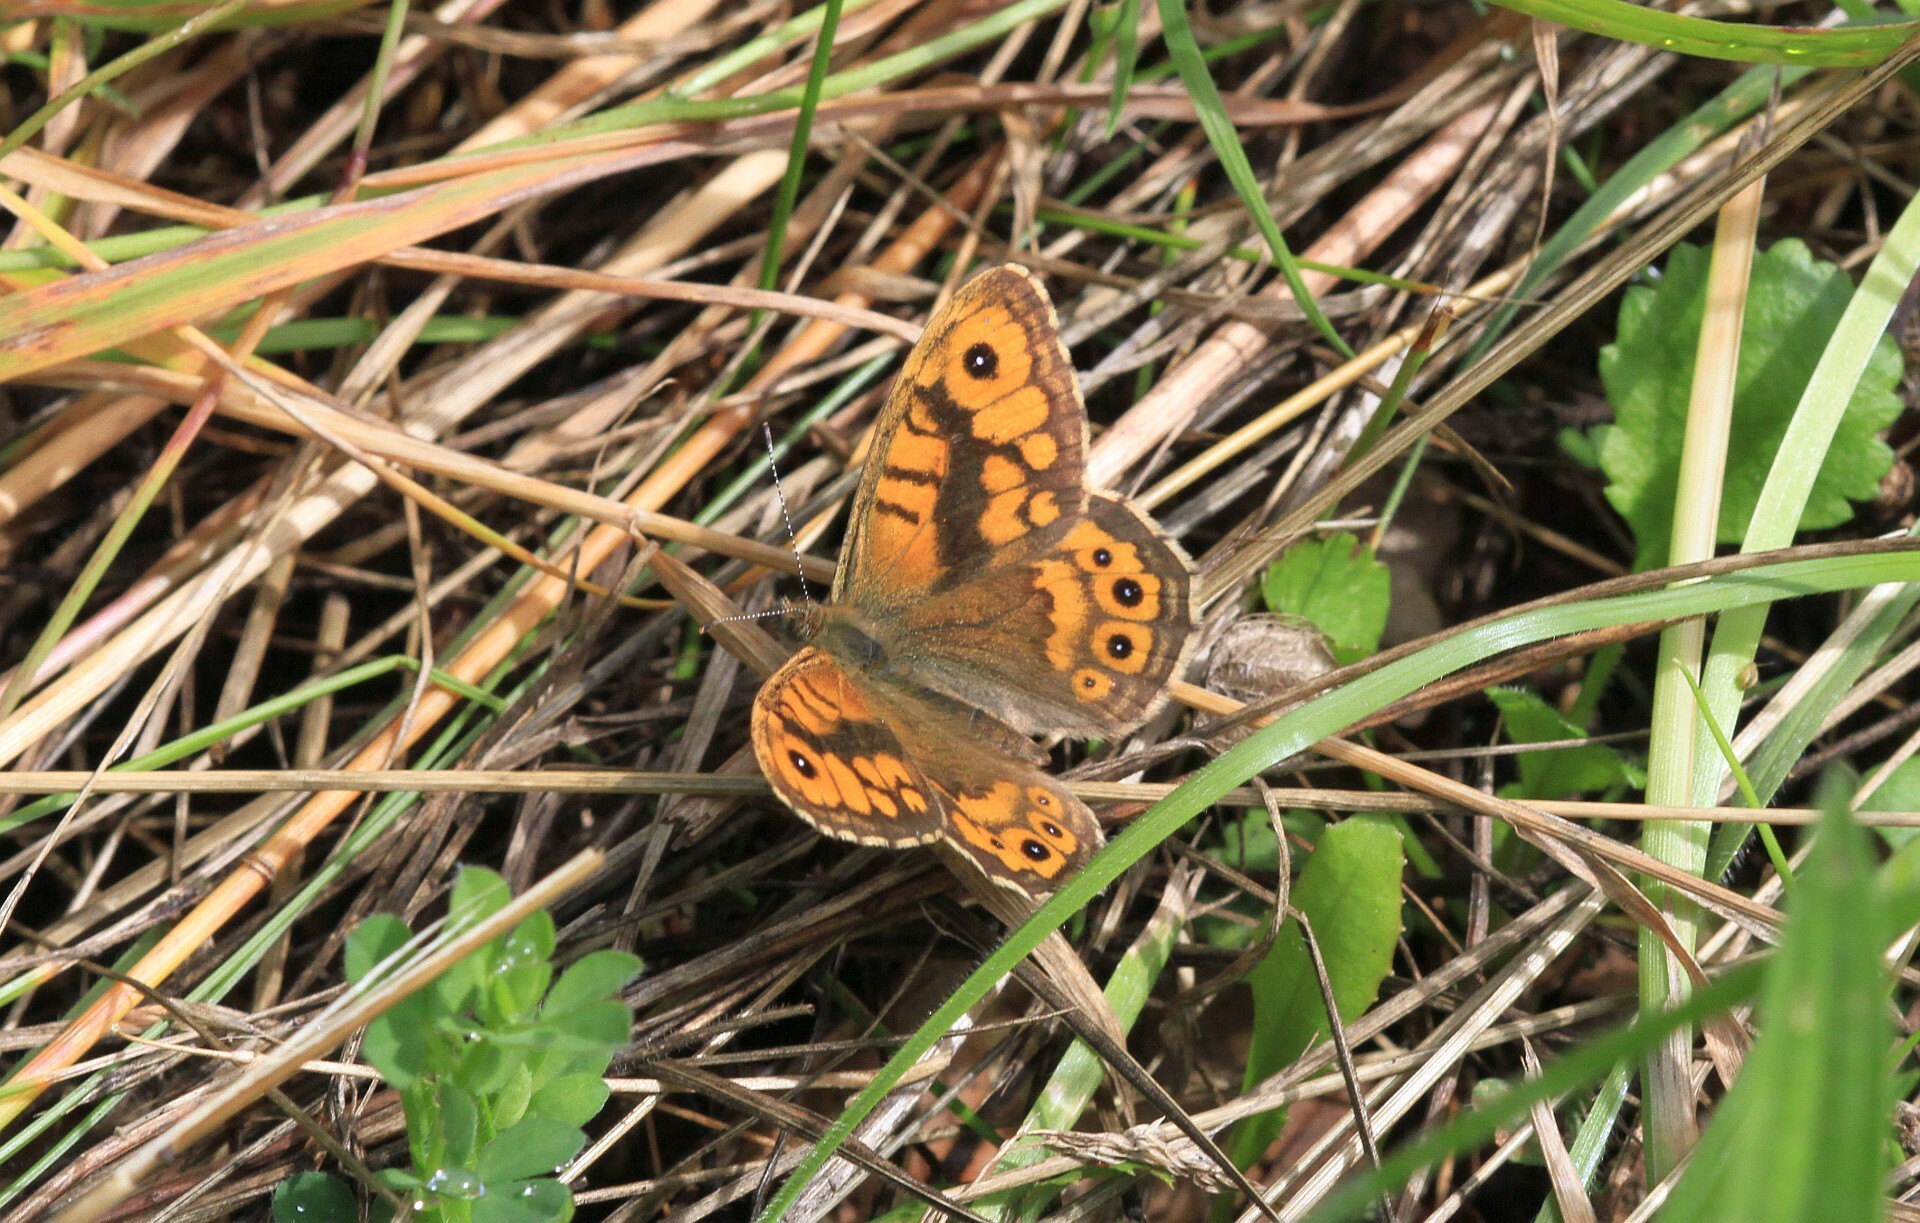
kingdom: Animalia
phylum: Arthropoda
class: Insecta
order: Lepidoptera
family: Nymphalidae
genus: Pararge
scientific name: Pararge Lasiommata megera
